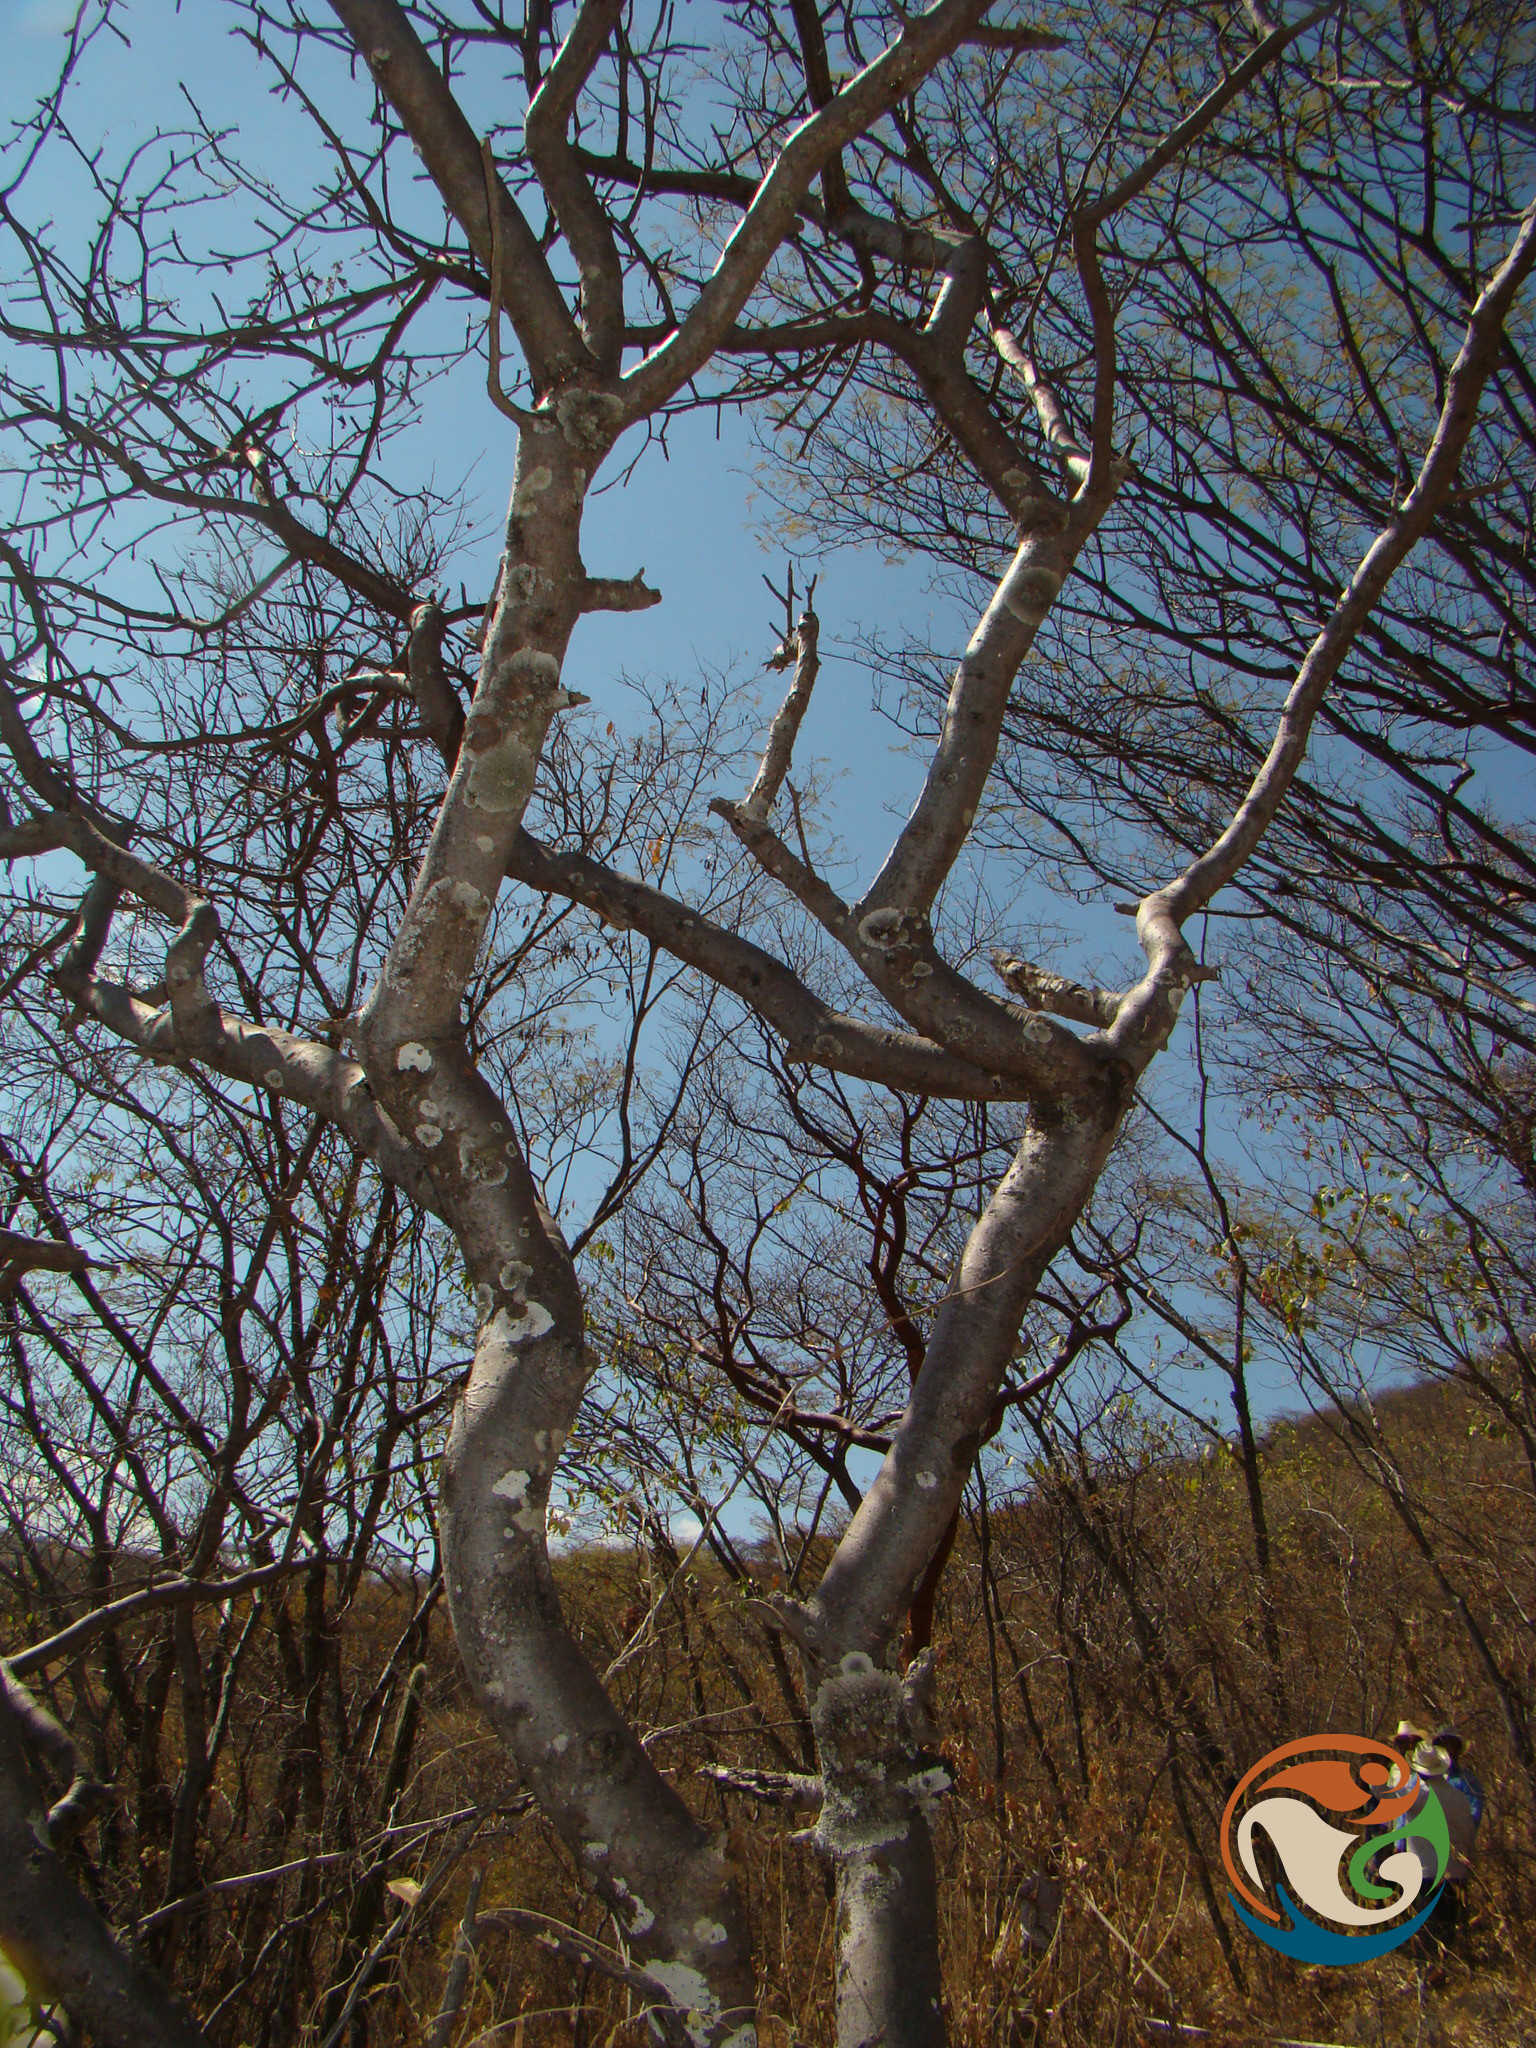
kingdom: Plantae
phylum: Tracheophyta
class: Magnoliopsida
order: Sapindales
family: Burseraceae
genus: Bursera
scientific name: Bursera submoniliformis
